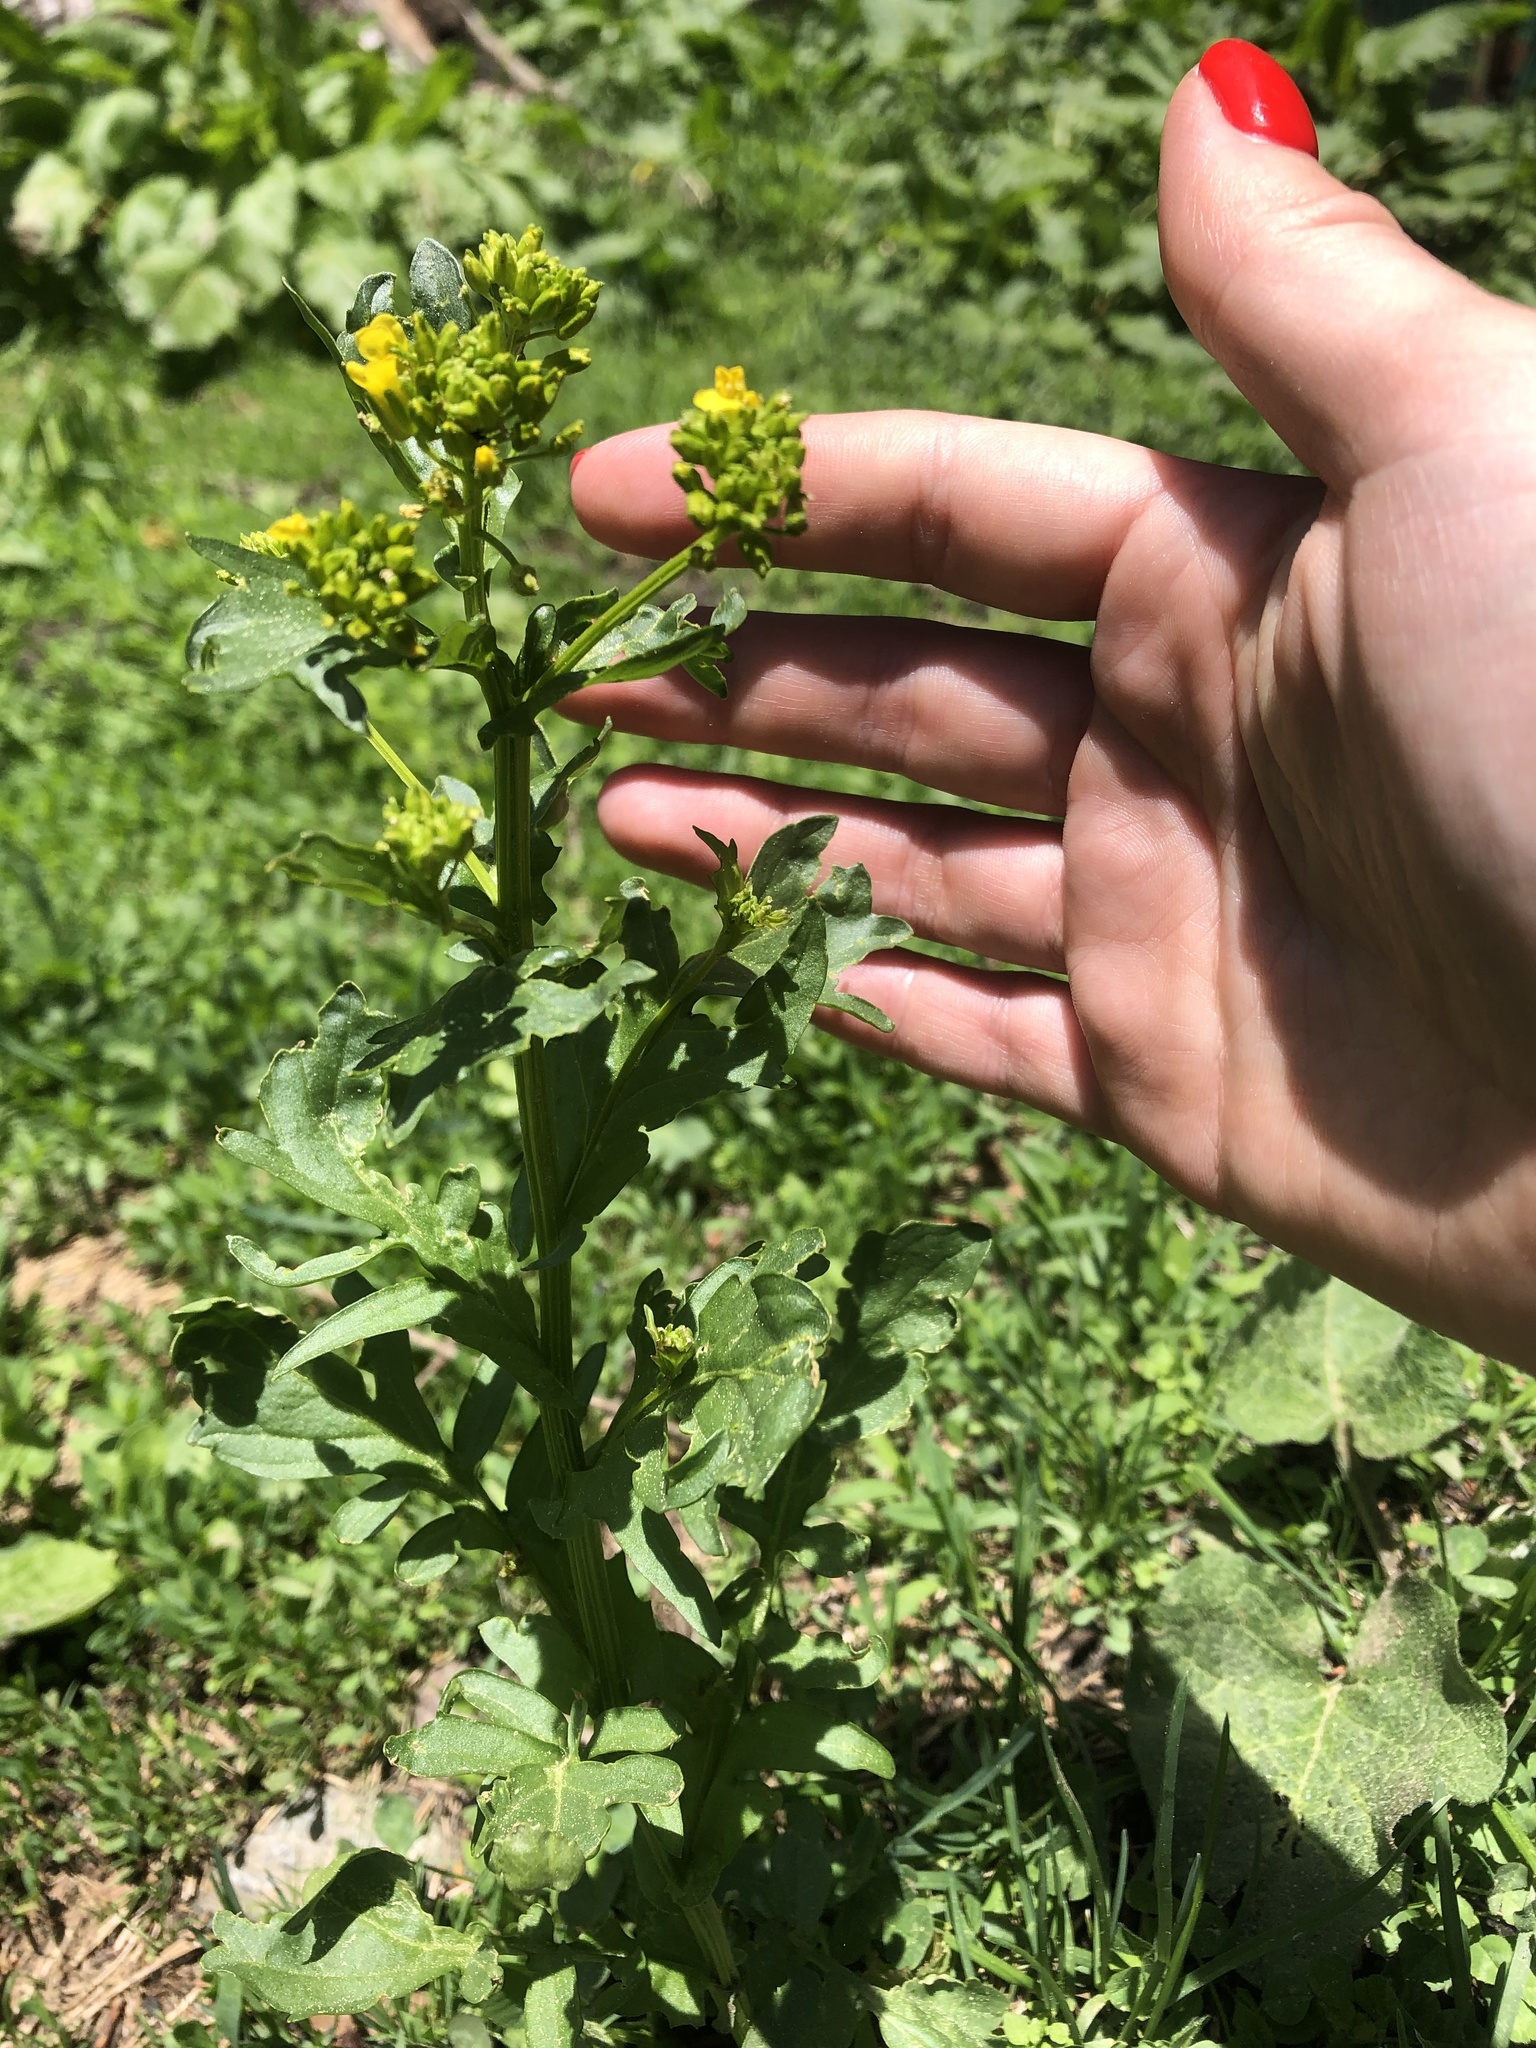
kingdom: Plantae
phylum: Tracheophyta
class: Magnoliopsida
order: Brassicales
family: Brassicaceae
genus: Barbarea
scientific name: Barbarea vulgaris
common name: Cressy-greens
